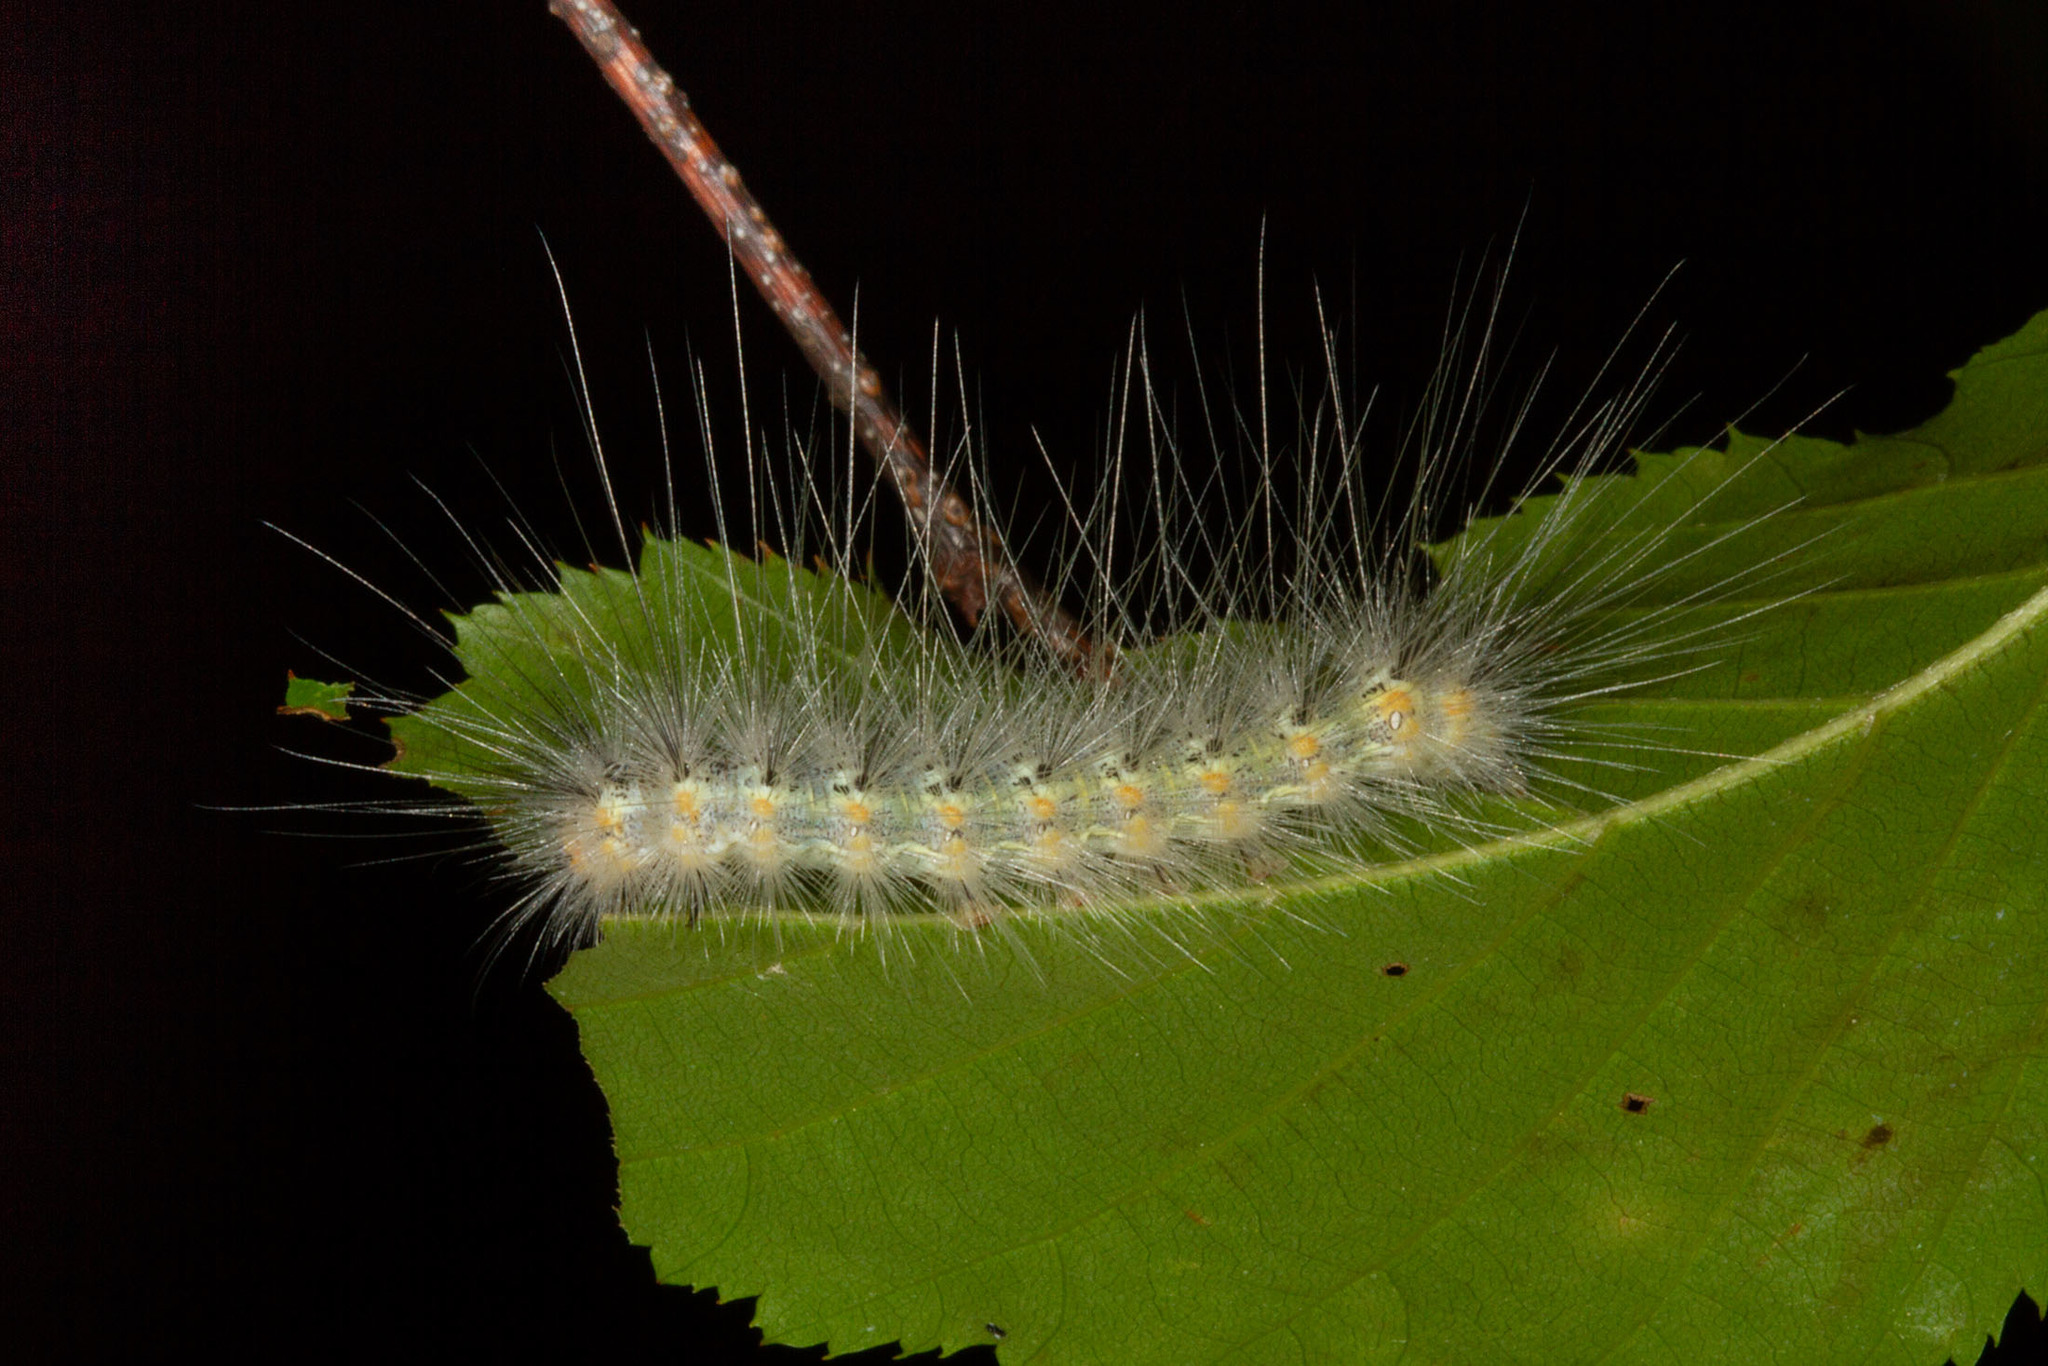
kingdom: Animalia
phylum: Arthropoda
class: Insecta
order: Lepidoptera
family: Erebidae
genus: Hyphantria
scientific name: Hyphantria cunea
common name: American white moth
